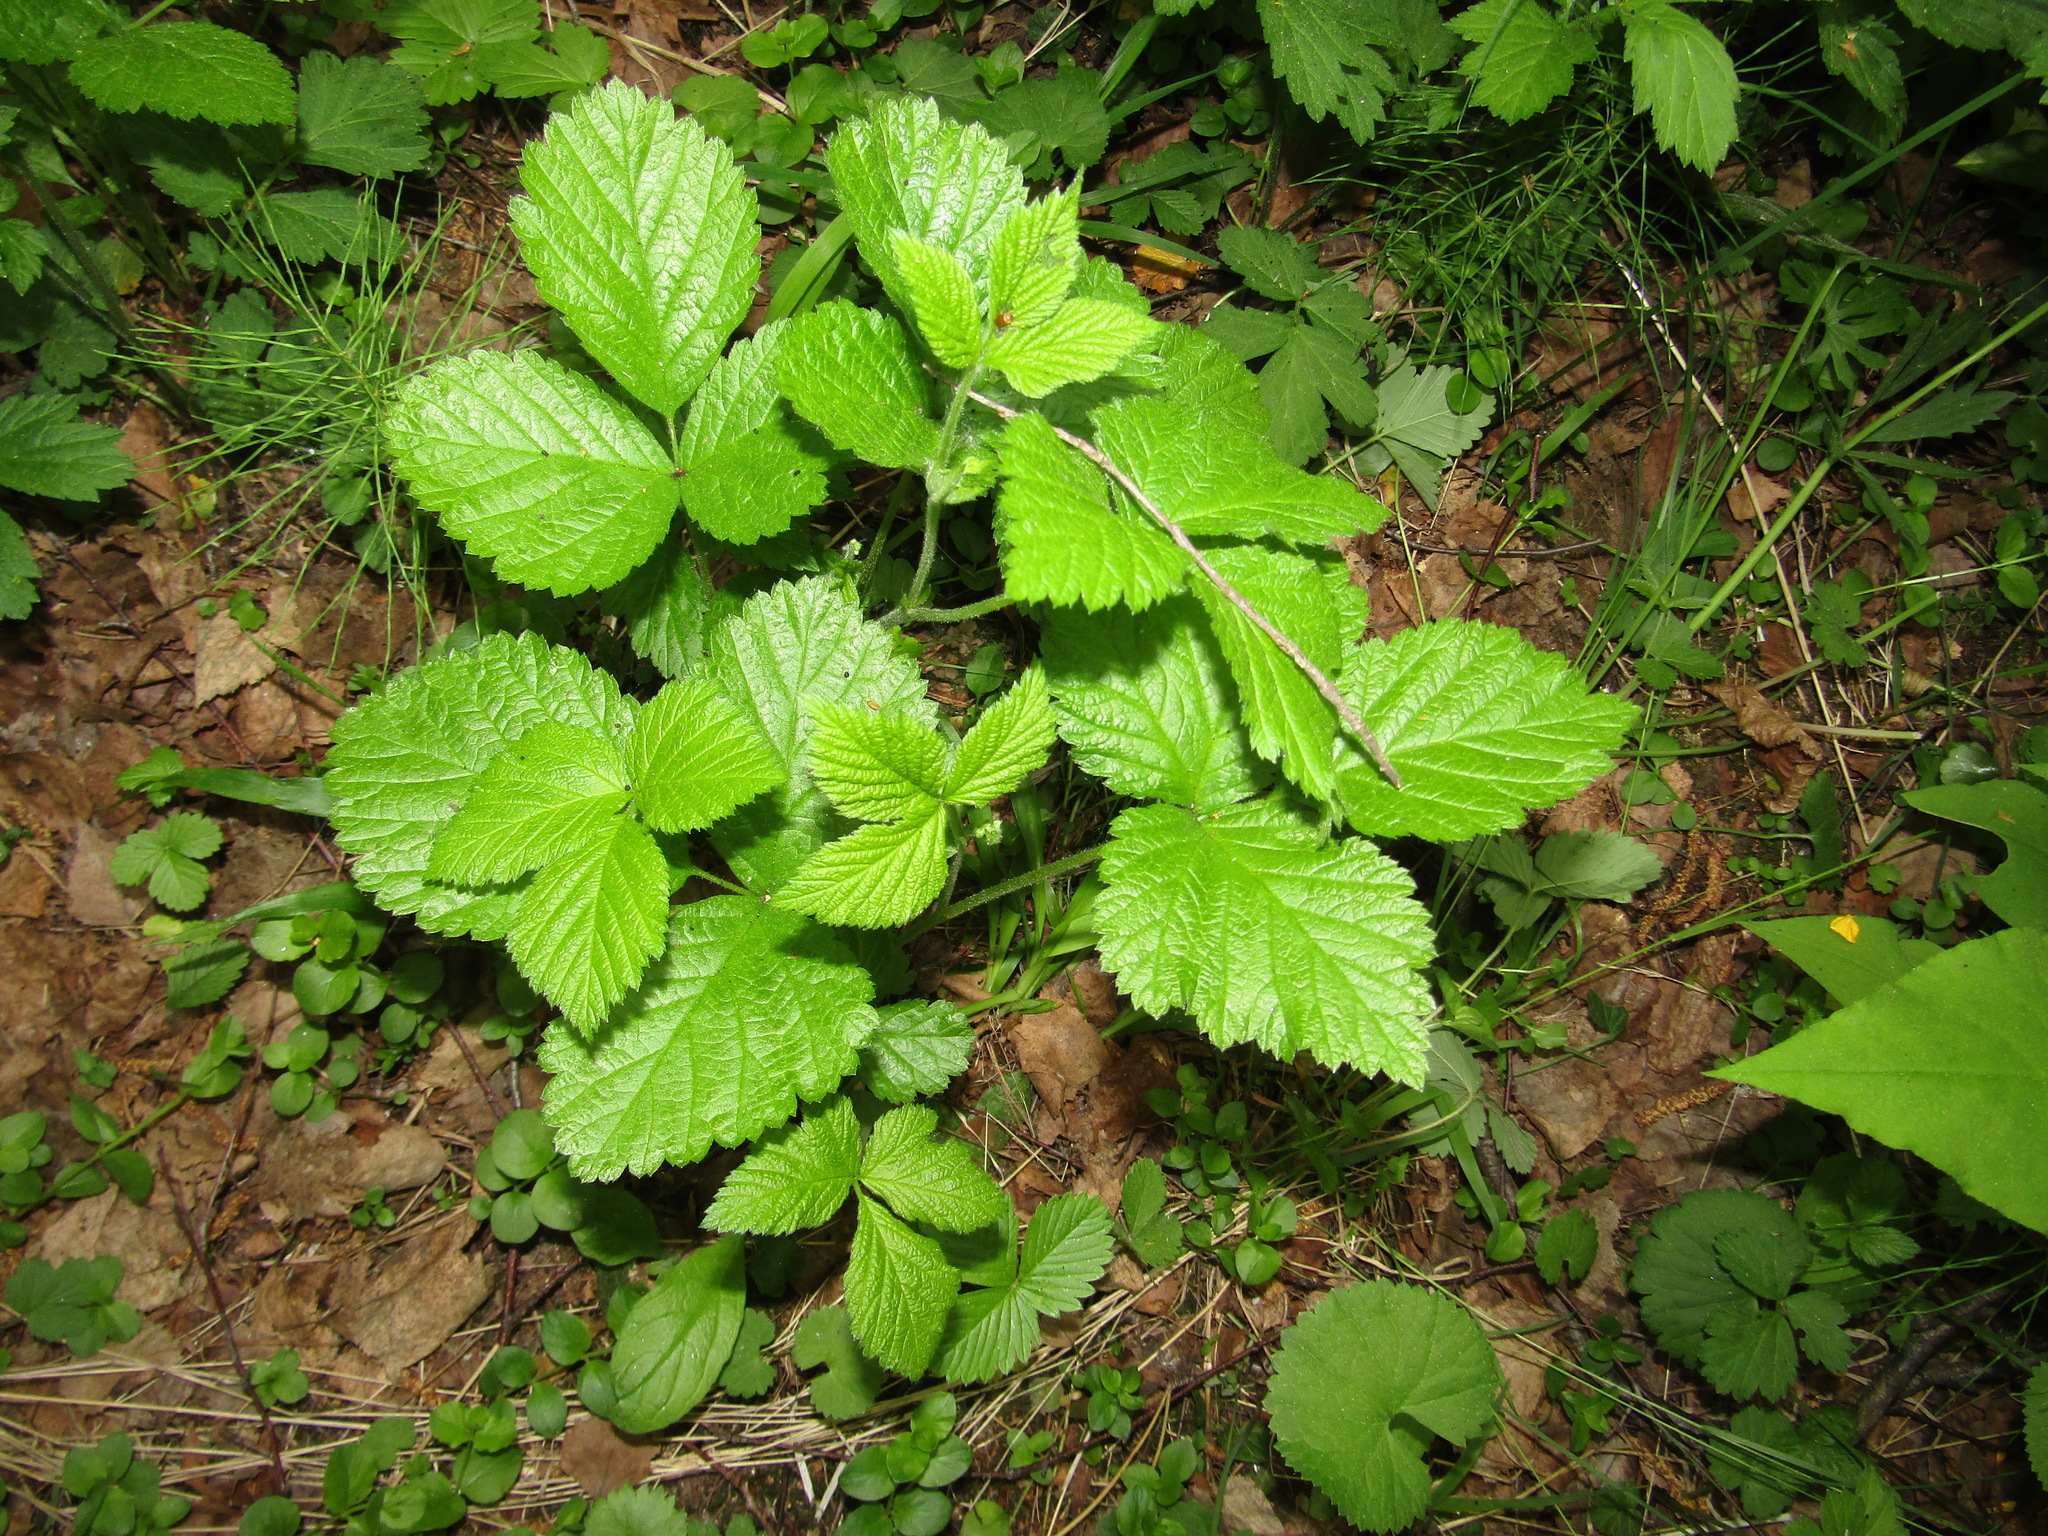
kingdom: Plantae
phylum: Tracheophyta
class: Magnoliopsida
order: Rosales
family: Rosaceae
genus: Rubus
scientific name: Rubus saxatilis
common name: Stone bramble
